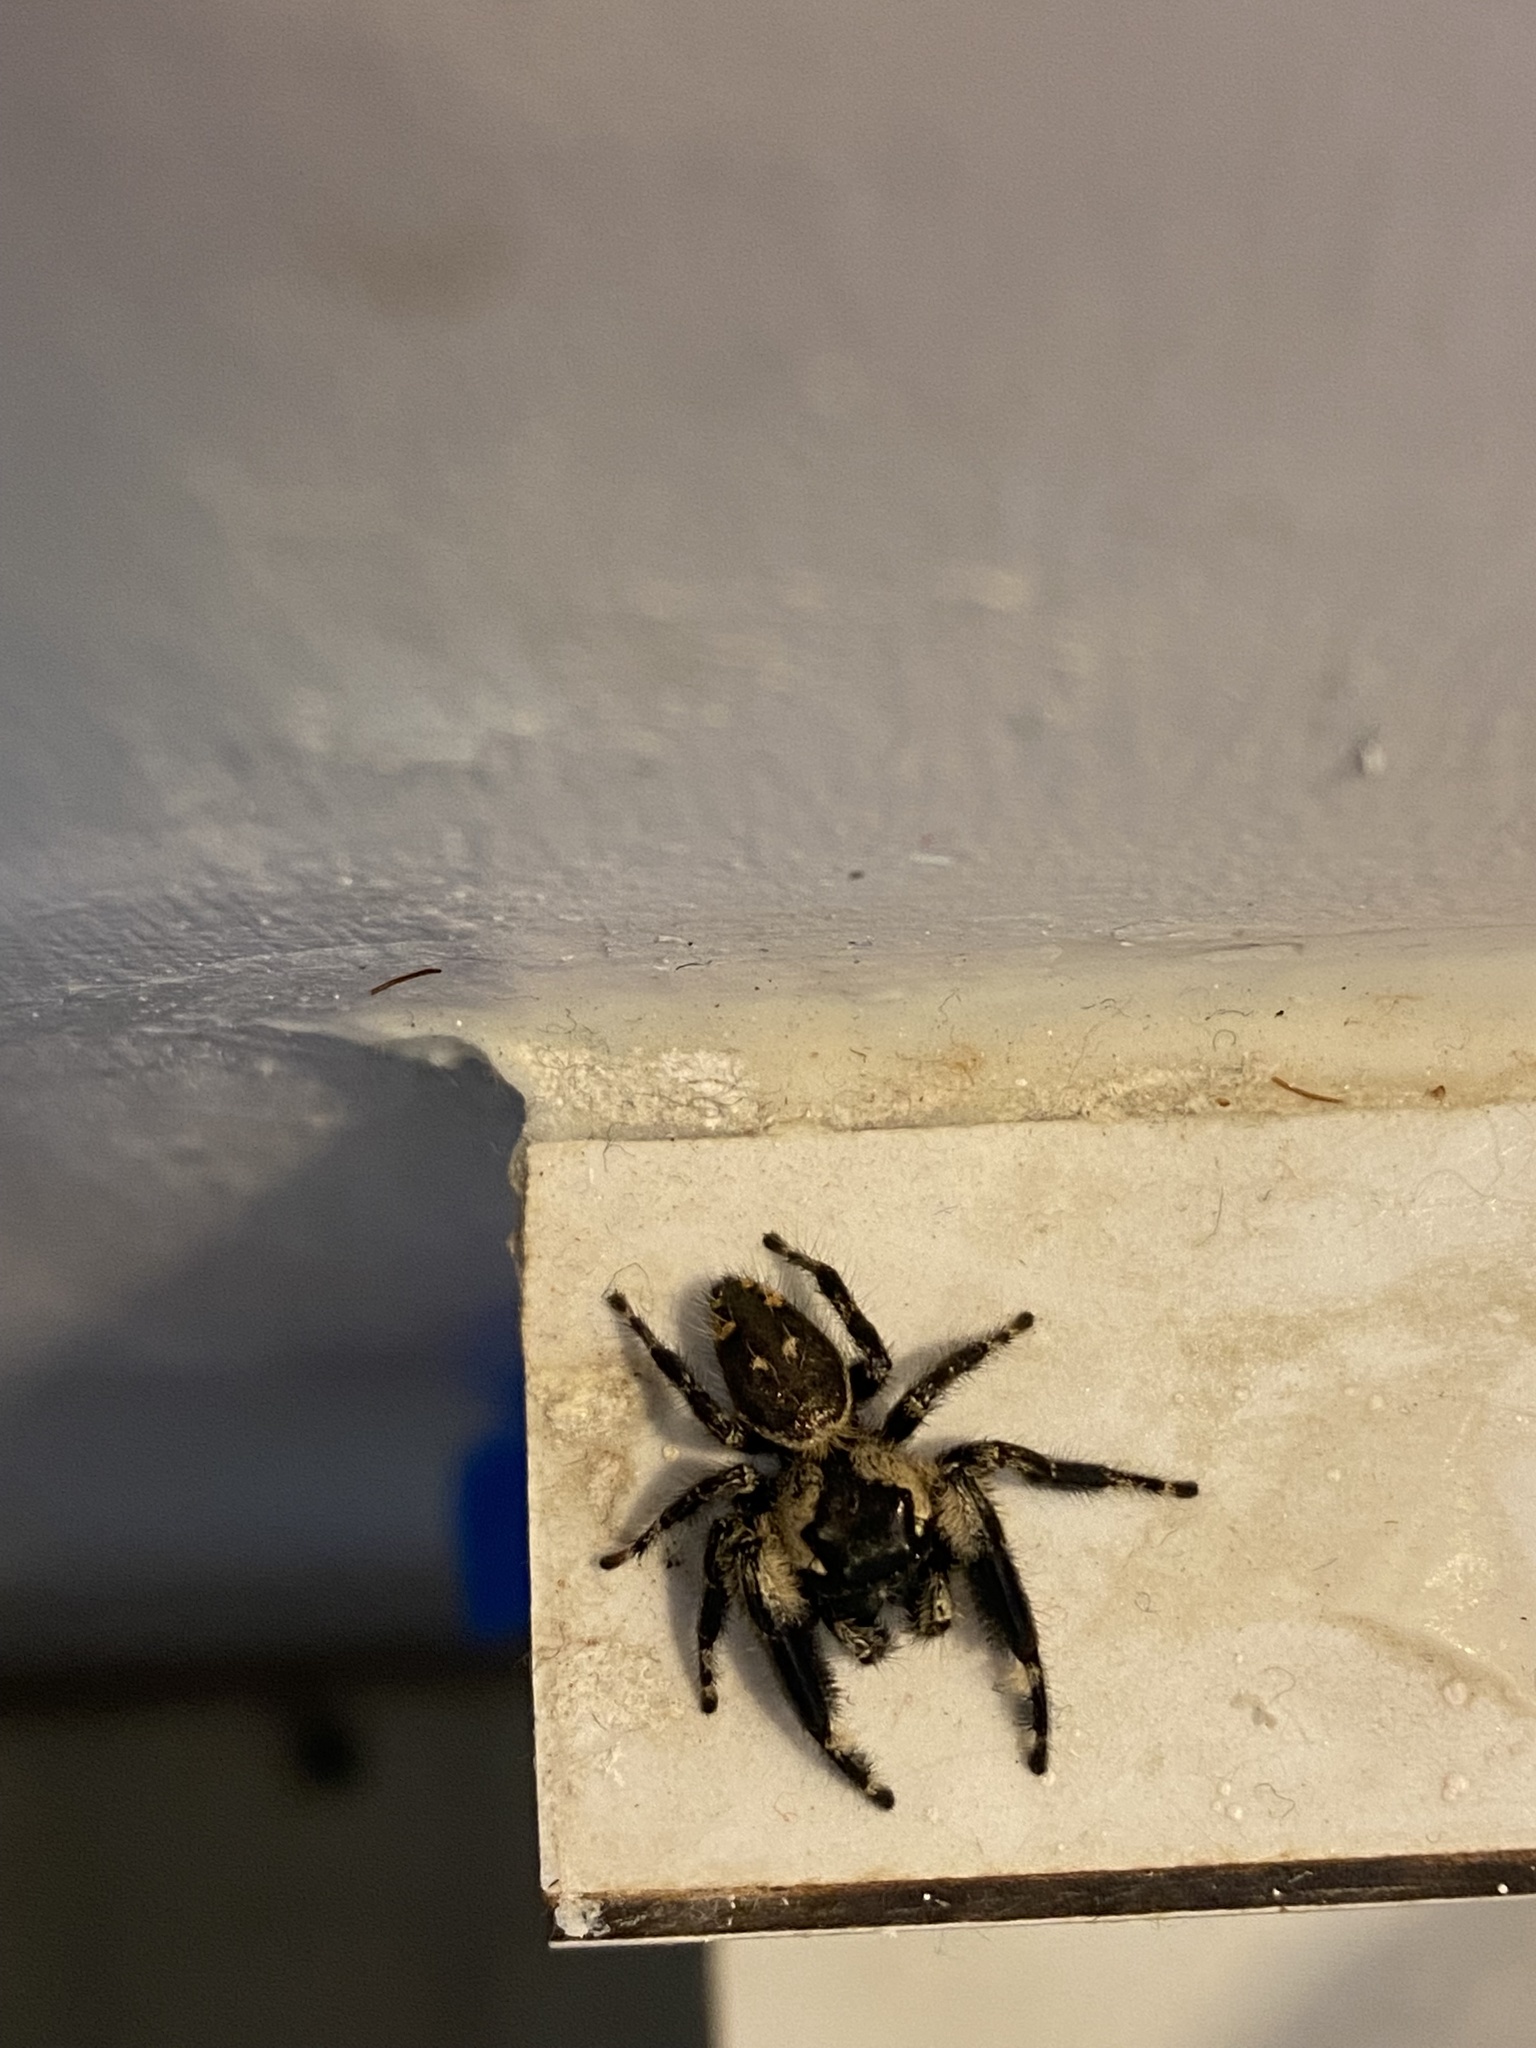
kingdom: Animalia
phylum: Arthropoda
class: Arachnida
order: Araneae
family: Salticidae
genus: Phidippus
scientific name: Phidippus otiosus
